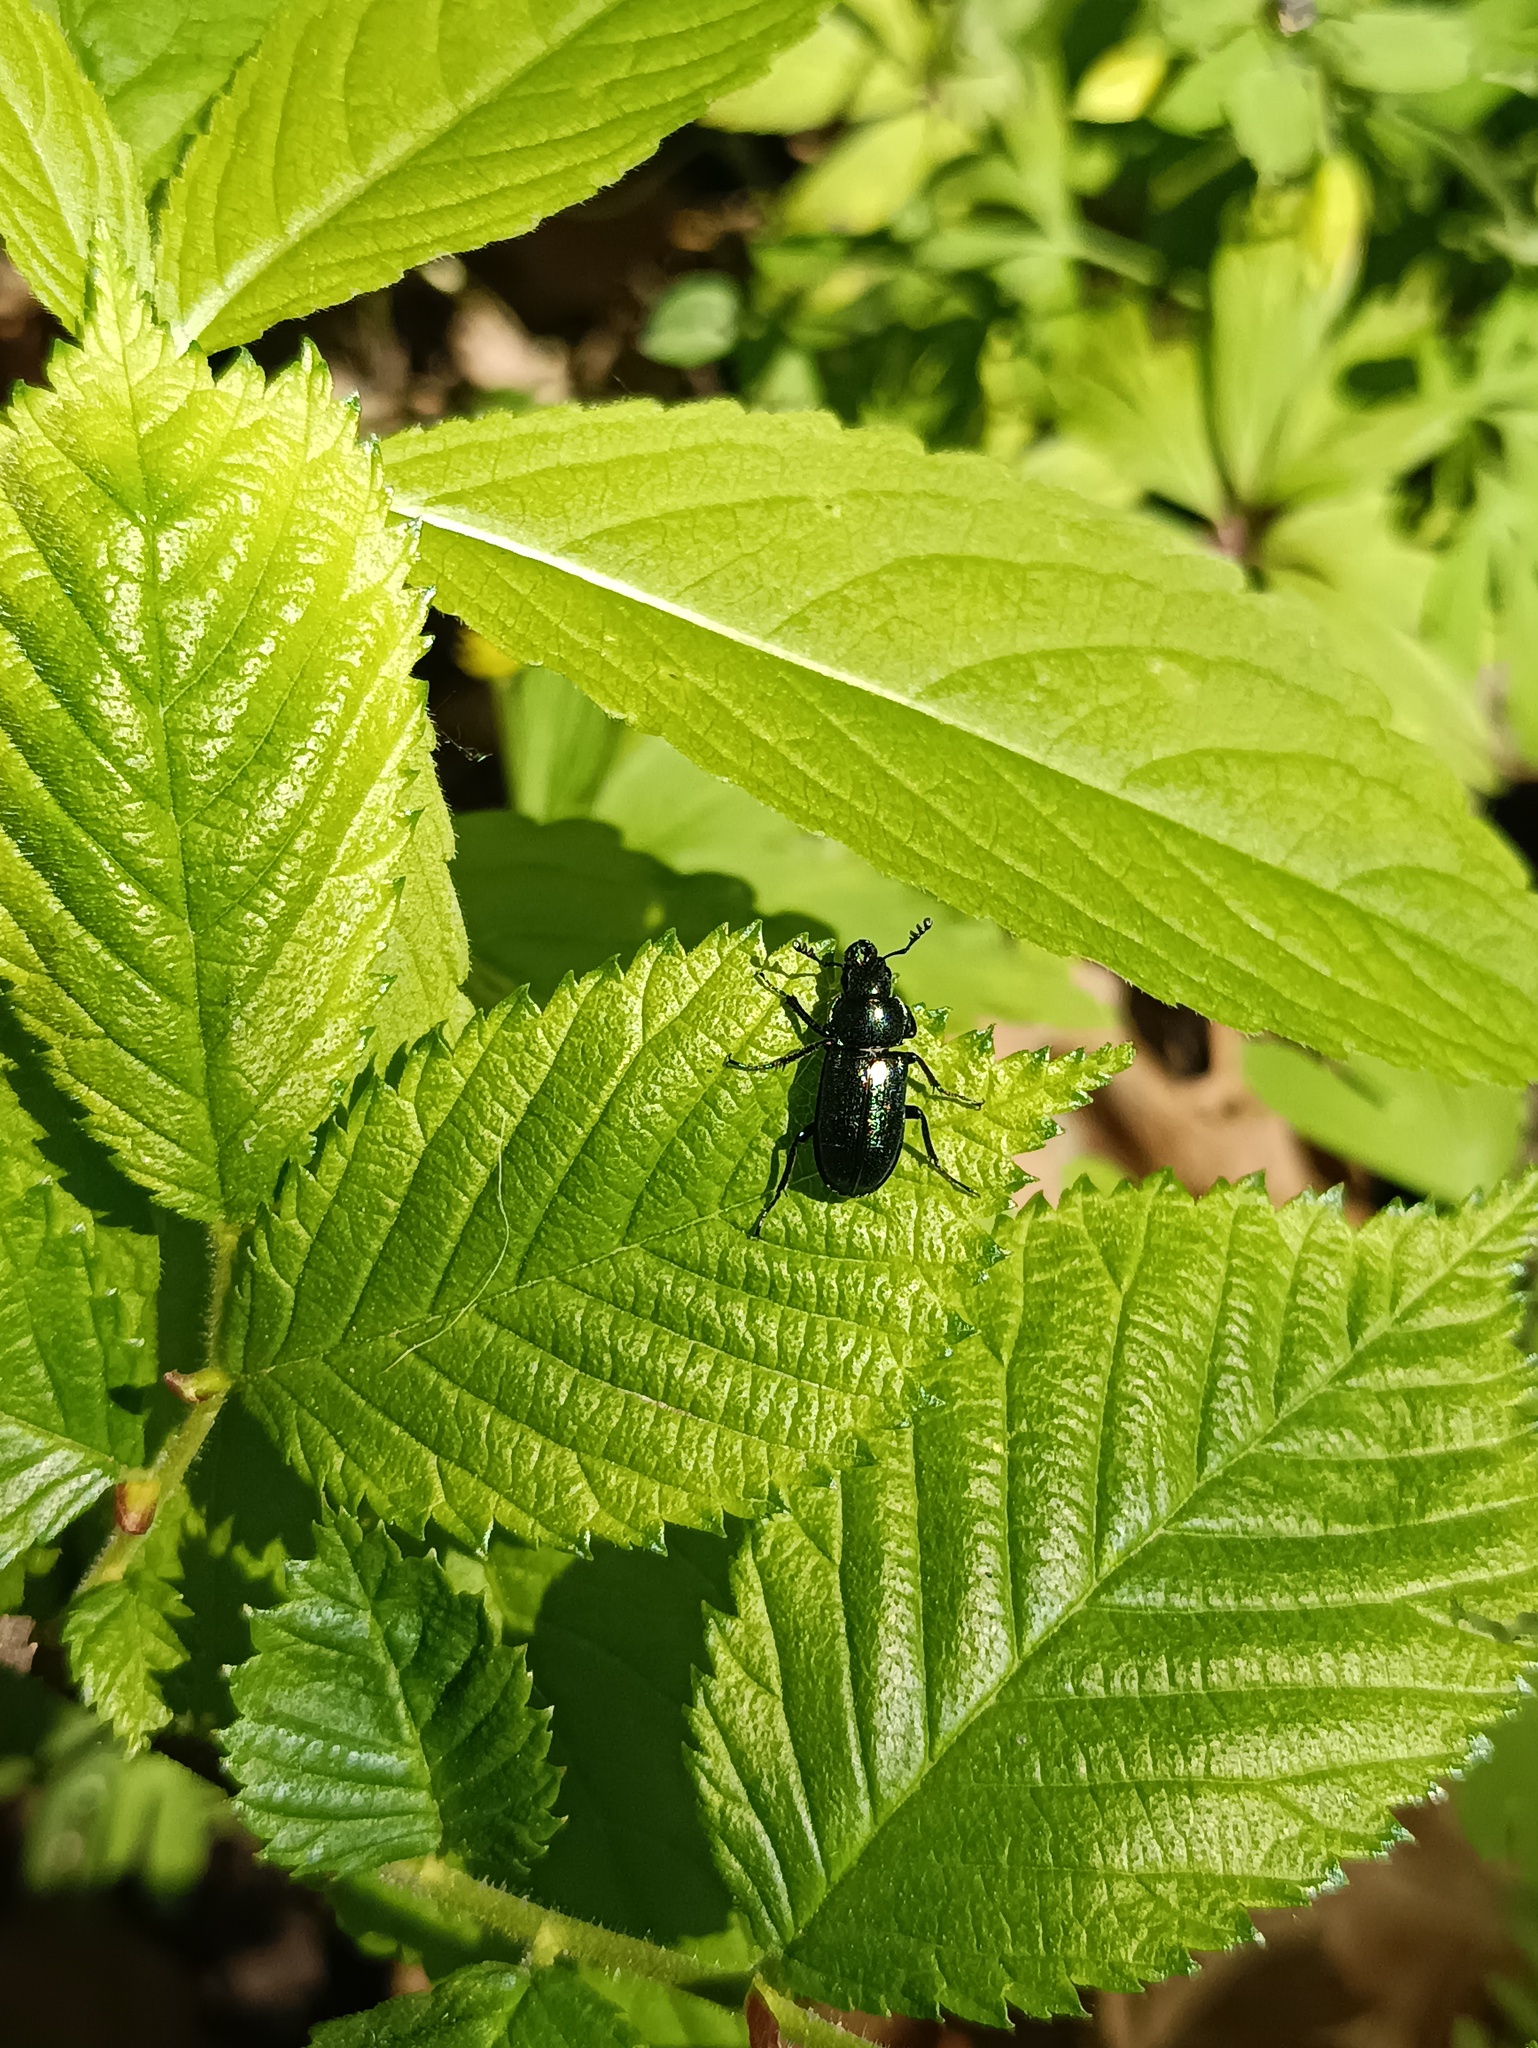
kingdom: Animalia
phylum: Arthropoda
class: Insecta
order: Coleoptera
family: Lucanidae
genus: Platycerus
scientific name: Platycerus caraboides
